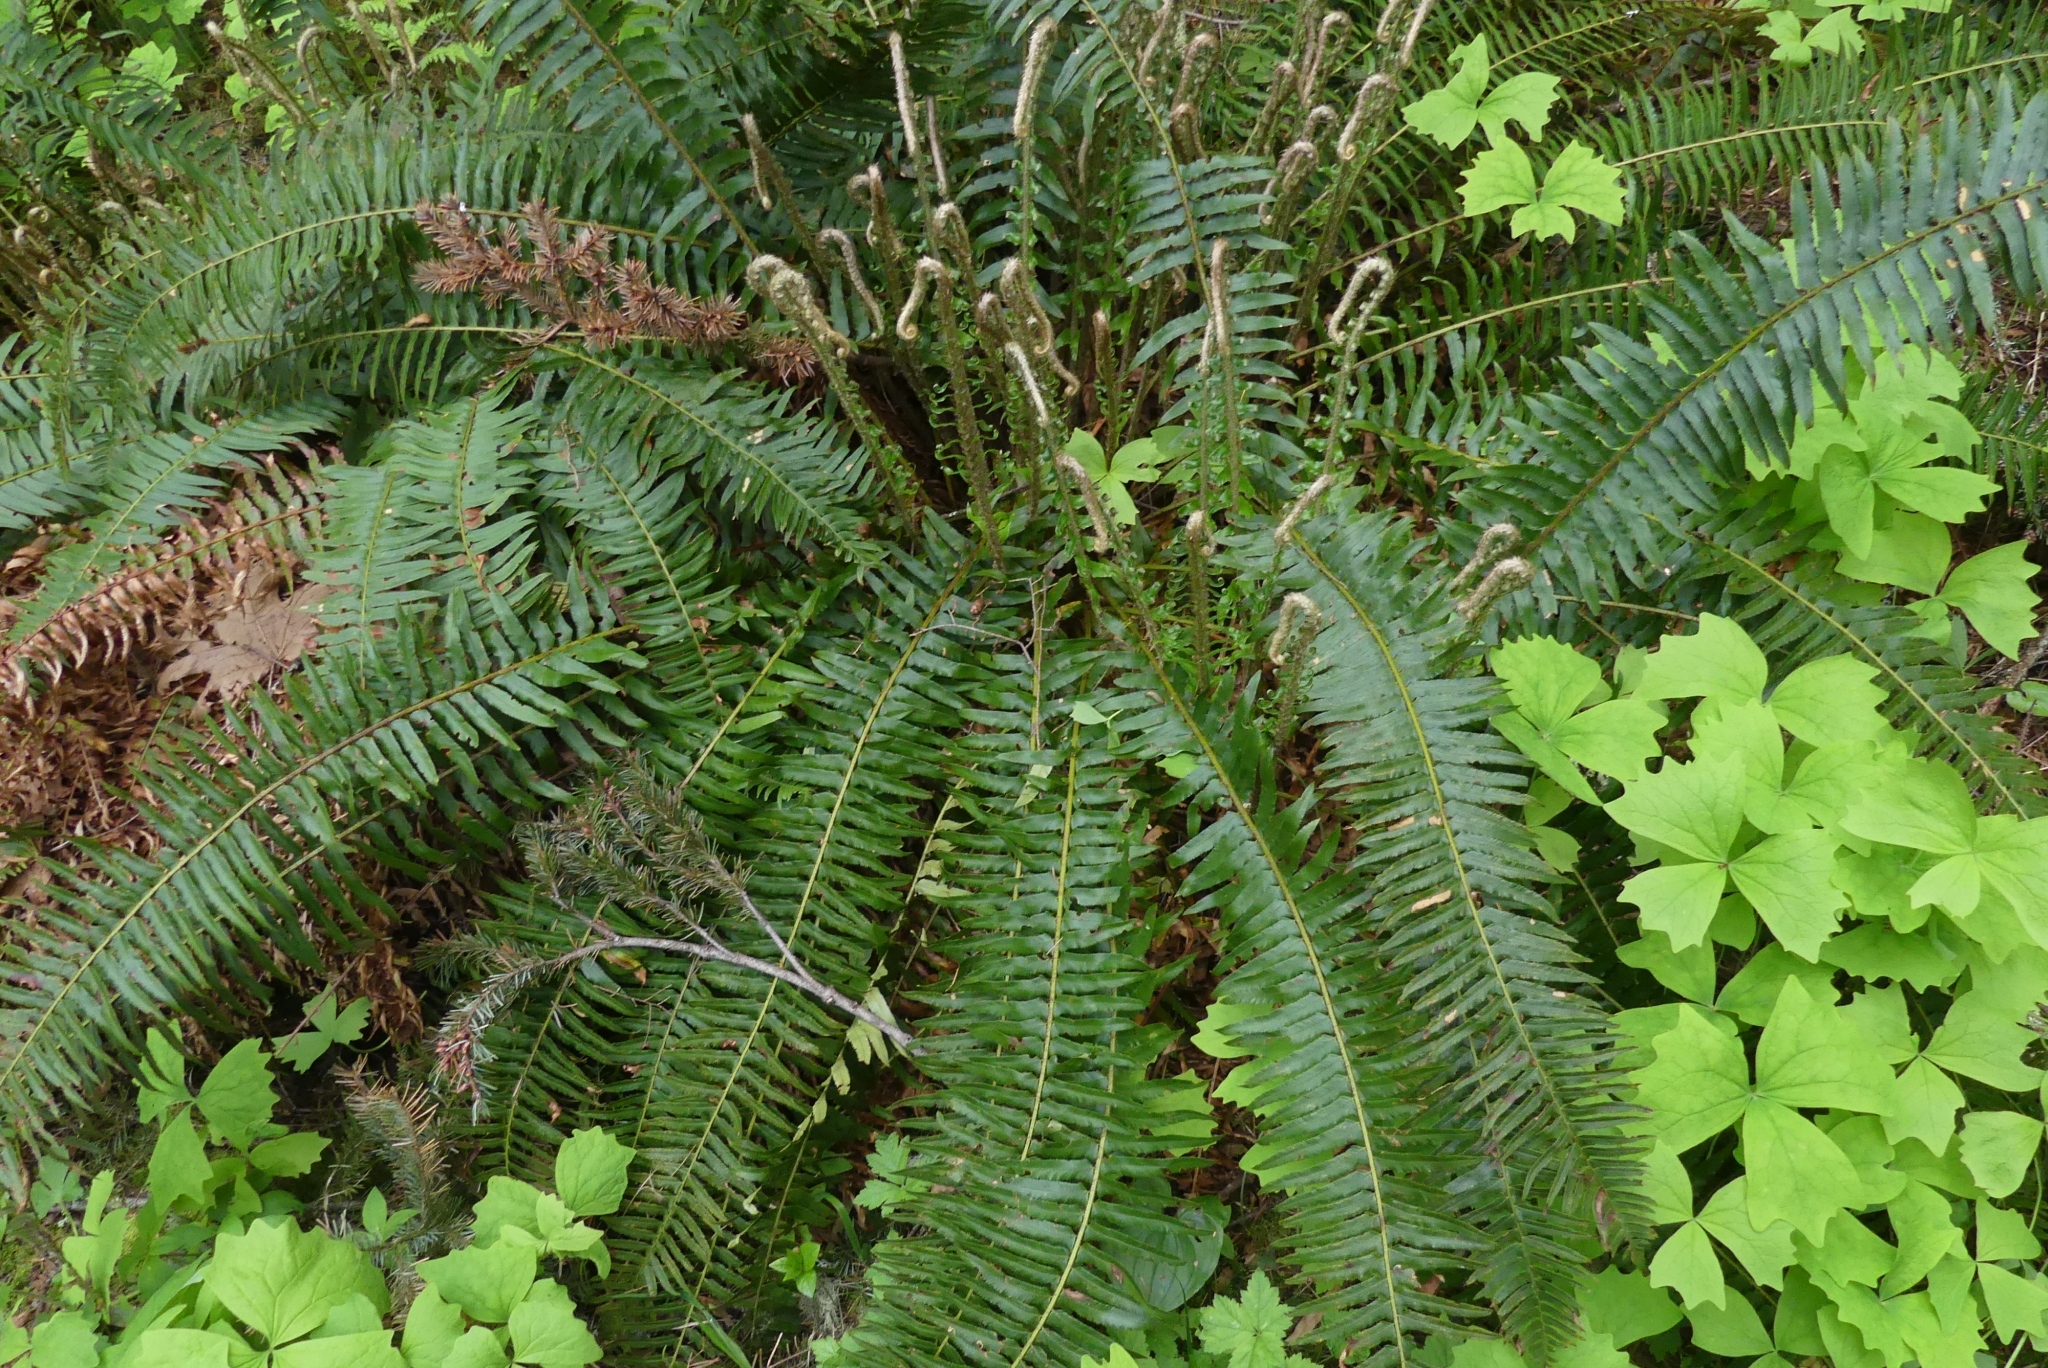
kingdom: Plantae
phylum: Tracheophyta
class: Polypodiopsida
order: Polypodiales
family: Dryopteridaceae
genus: Polystichum
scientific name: Polystichum munitum
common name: Western sword-fern
